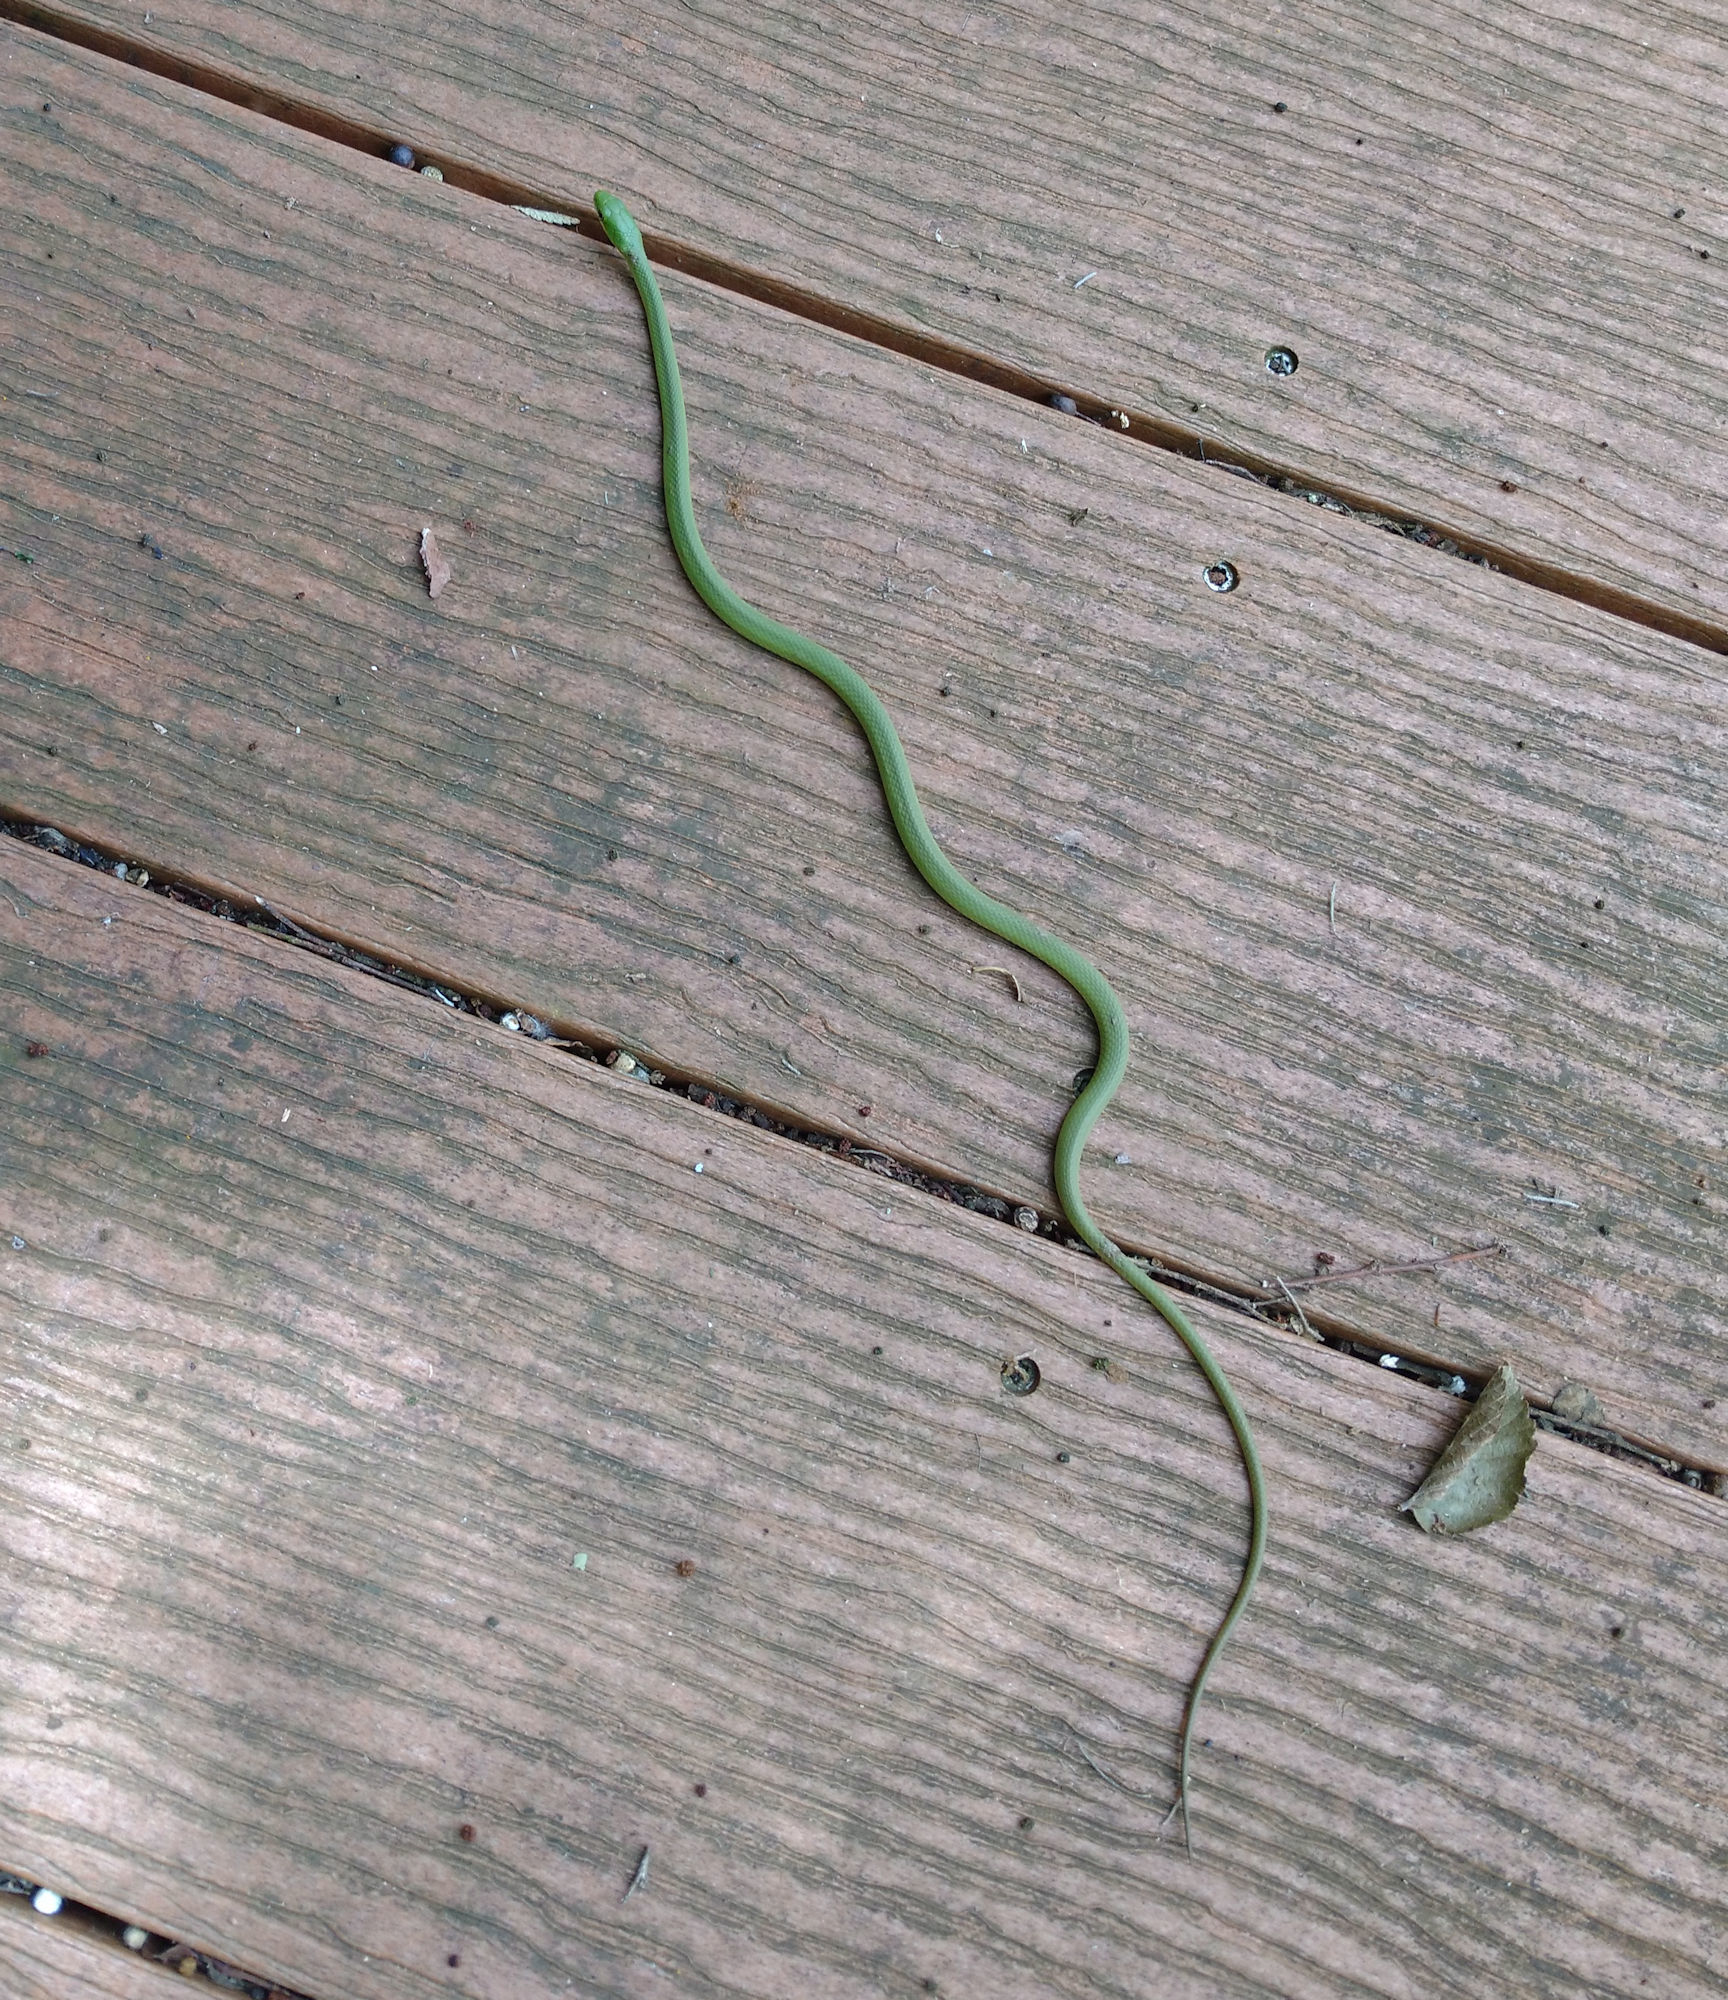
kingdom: Animalia
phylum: Chordata
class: Squamata
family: Colubridae
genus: Opheodrys
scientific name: Opheodrys aestivus
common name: Rough greensnake
